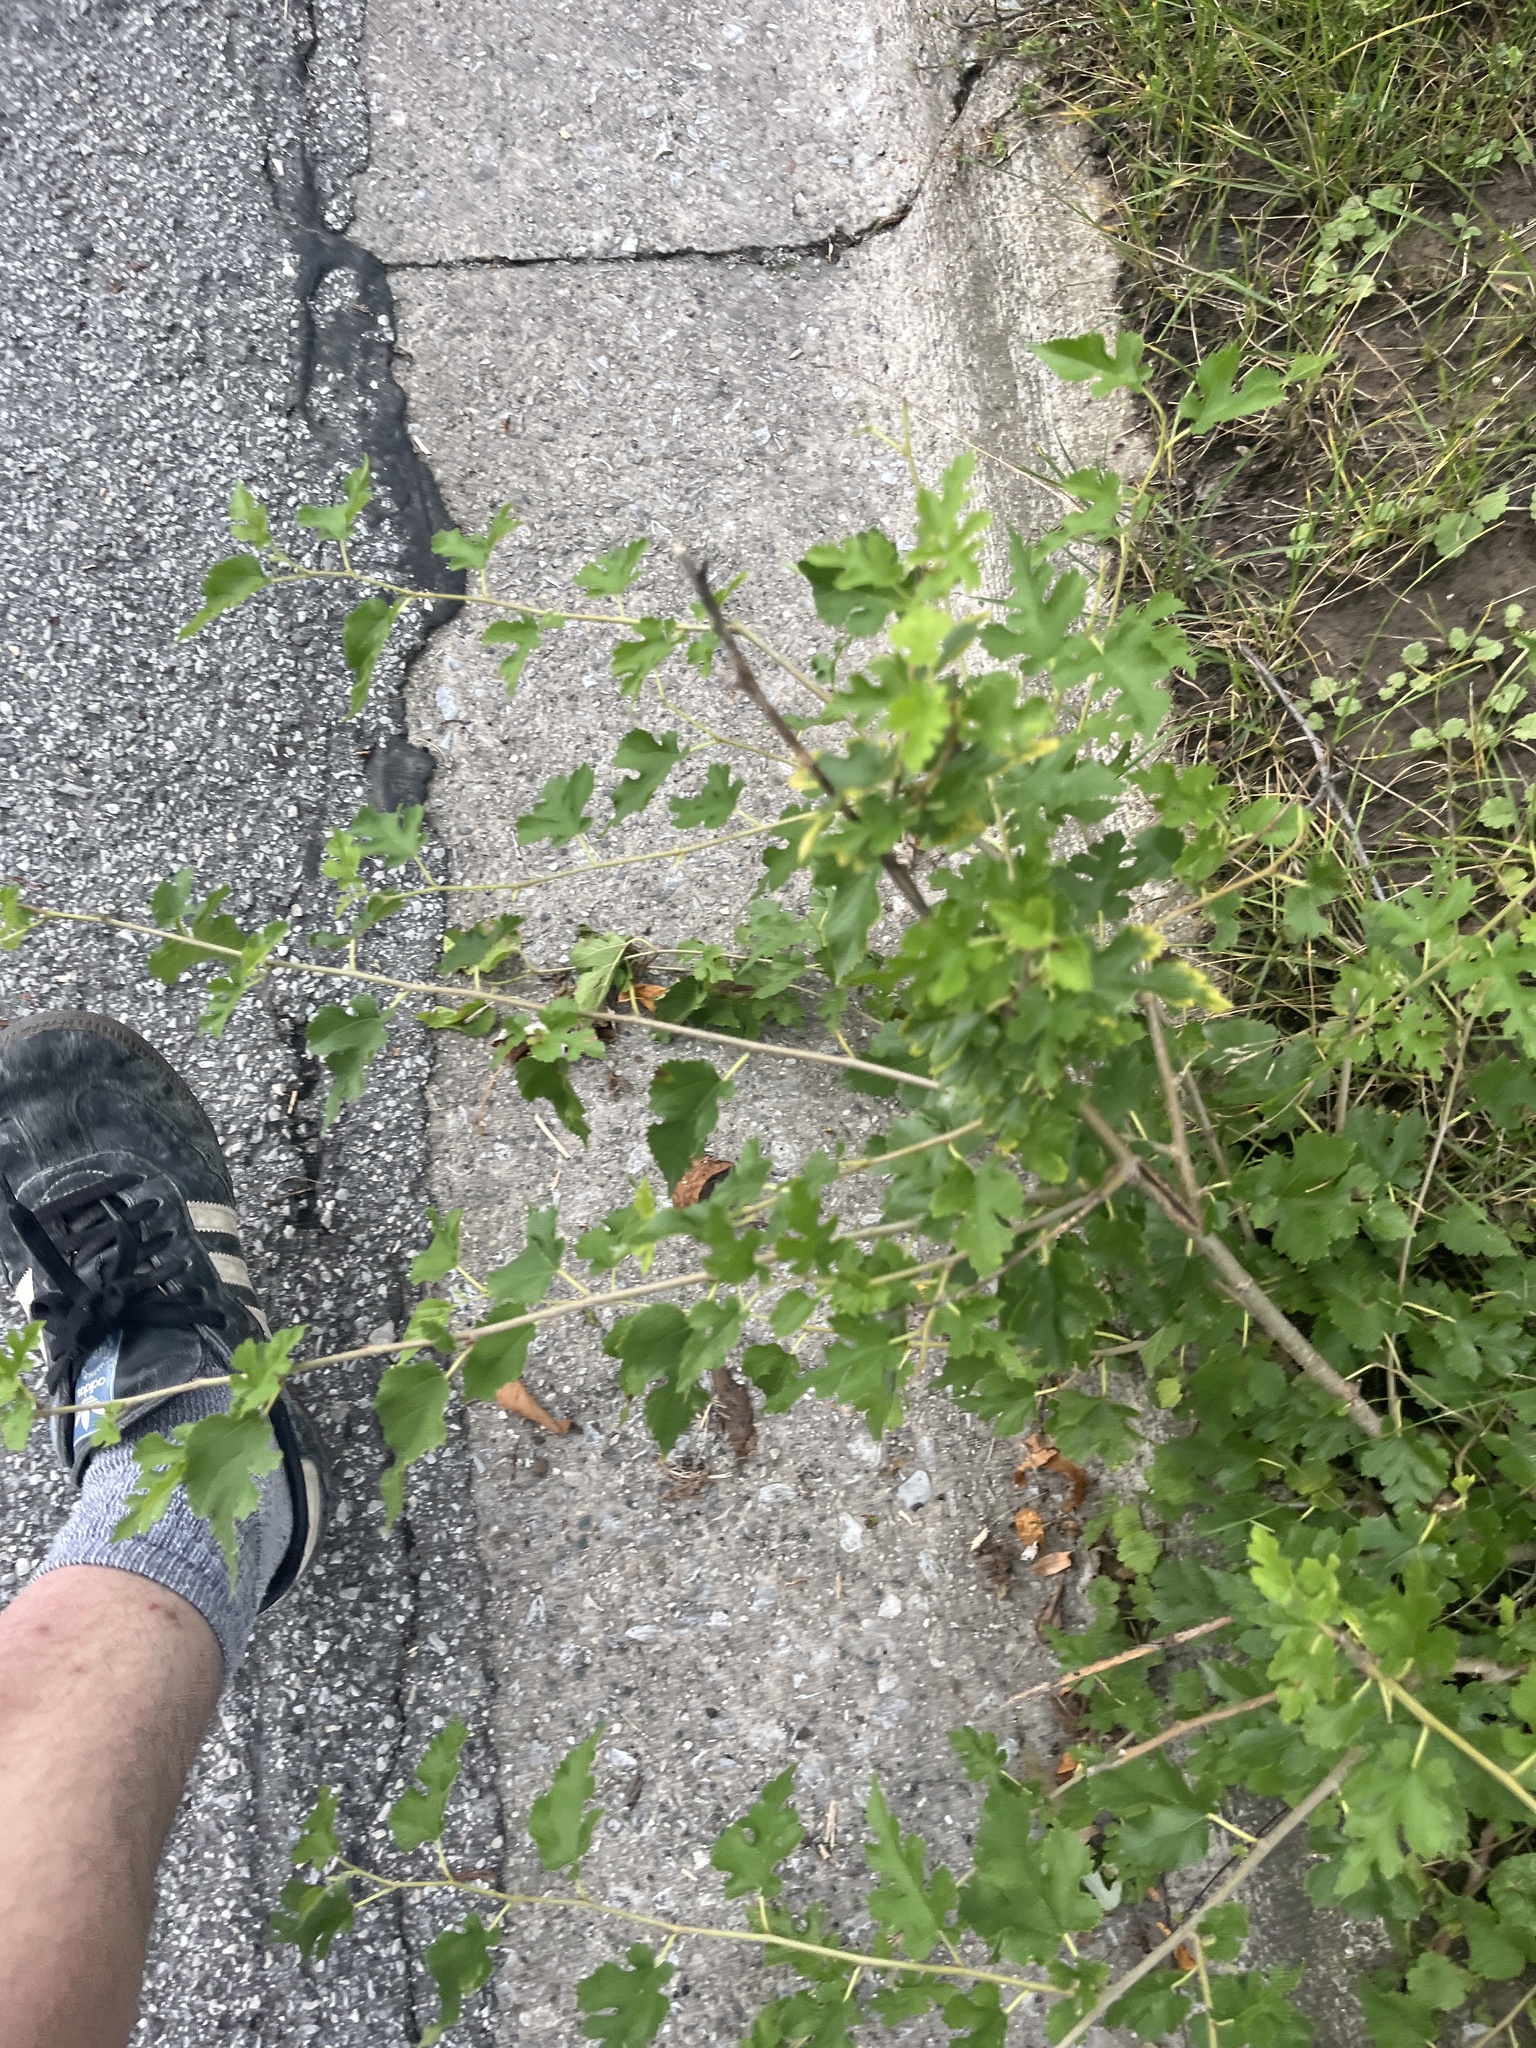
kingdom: Plantae
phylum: Tracheophyta
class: Magnoliopsida
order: Rosales
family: Moraceae
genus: Morus
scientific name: Morus alba
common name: White mulberry
